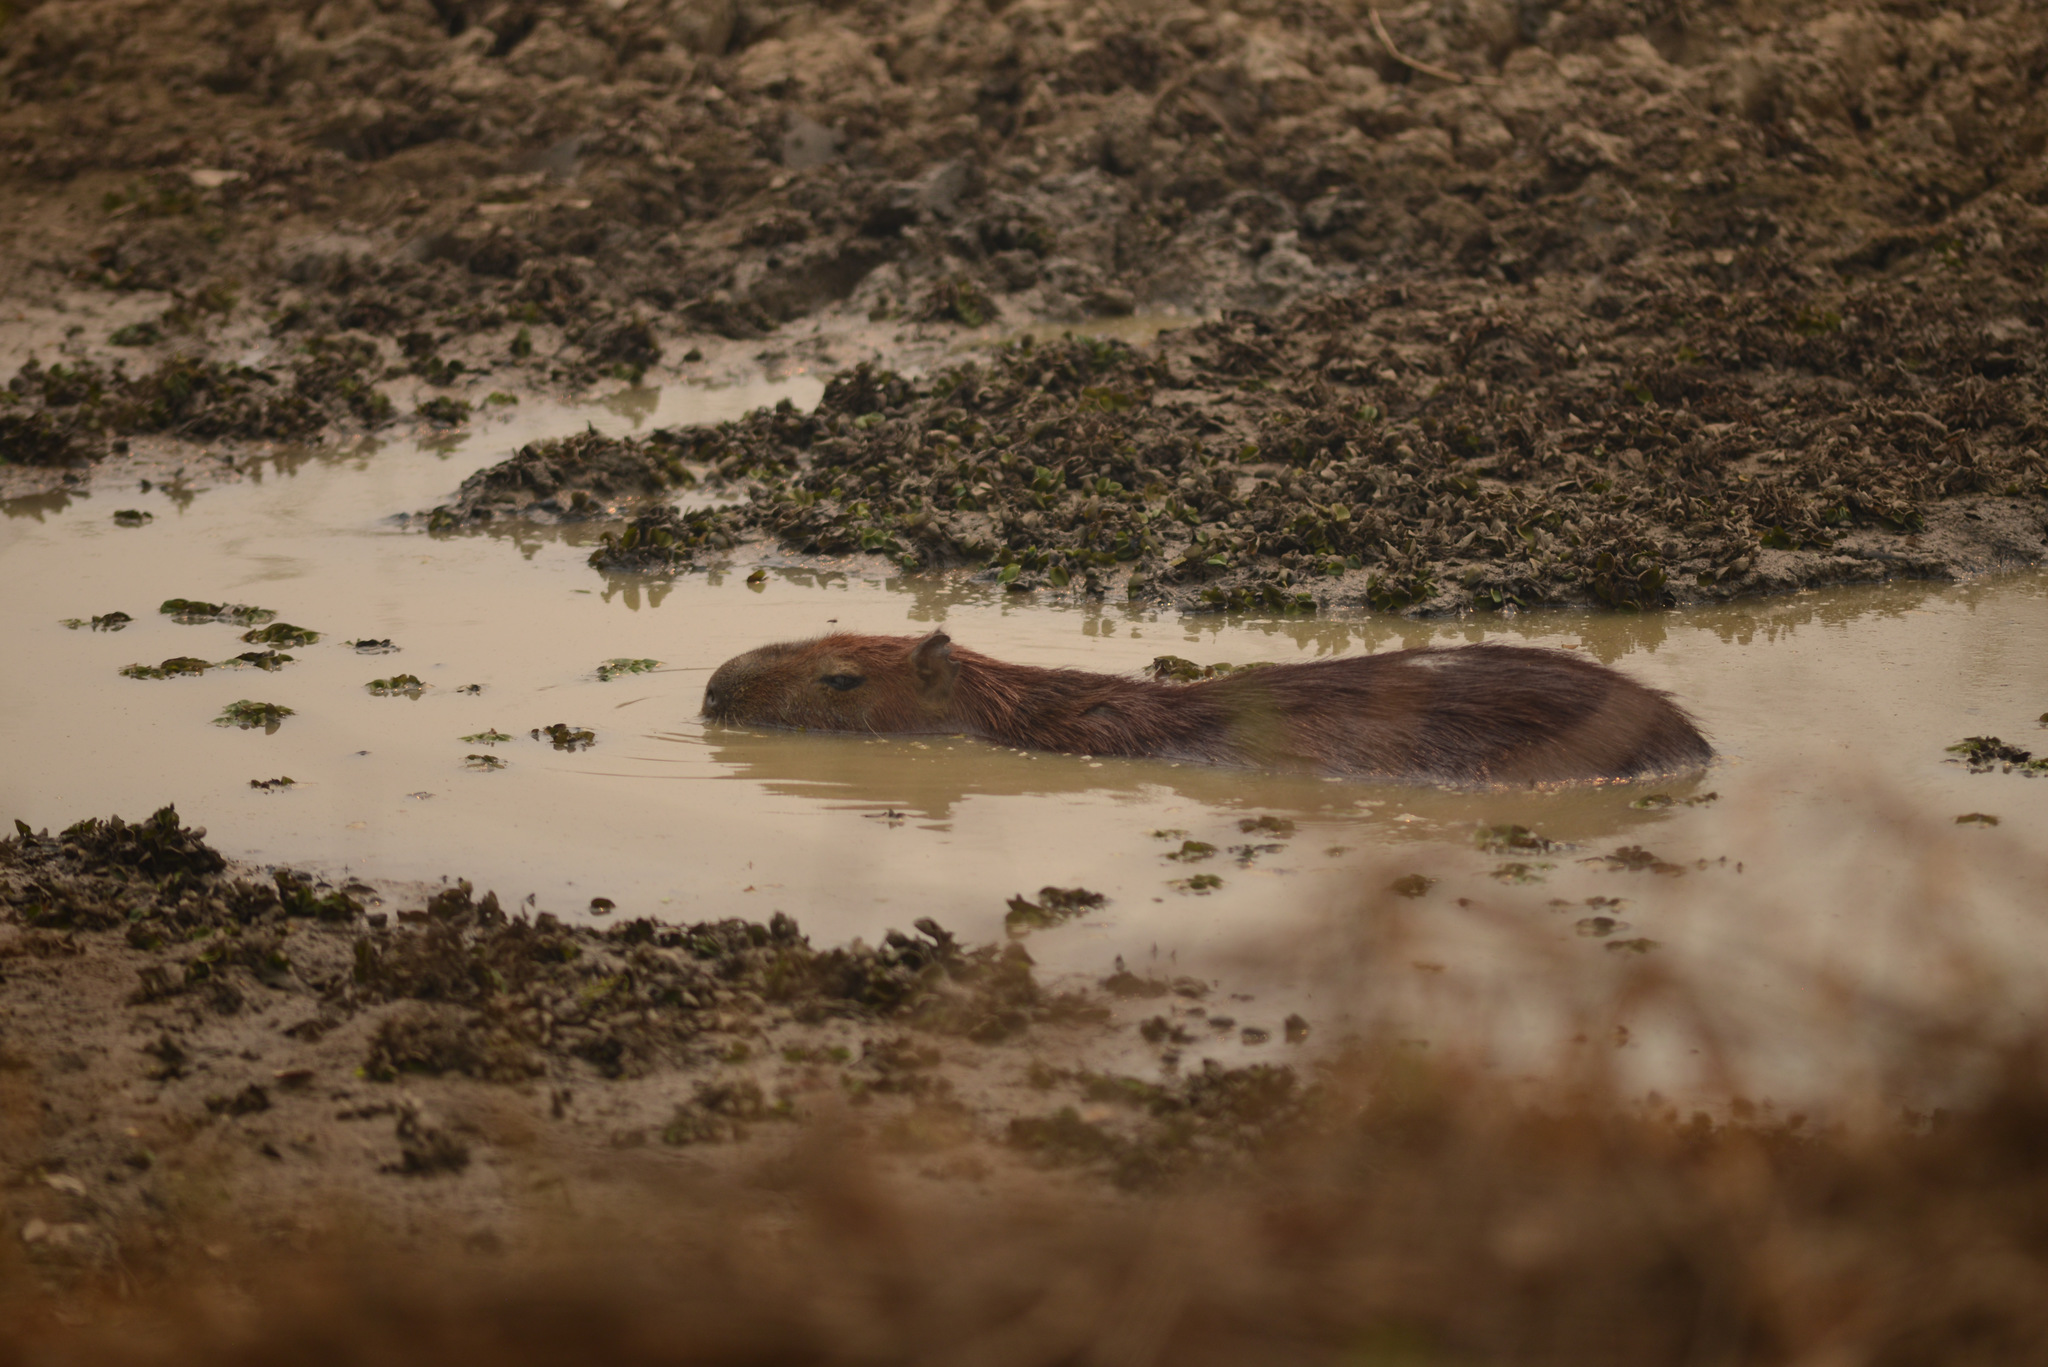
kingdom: Animalia
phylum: Chordata
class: Mammalia
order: Rodentia
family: Caviidae
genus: Hydrochoerus
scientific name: Hydrochoerus hydrochaeris
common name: Capybara
